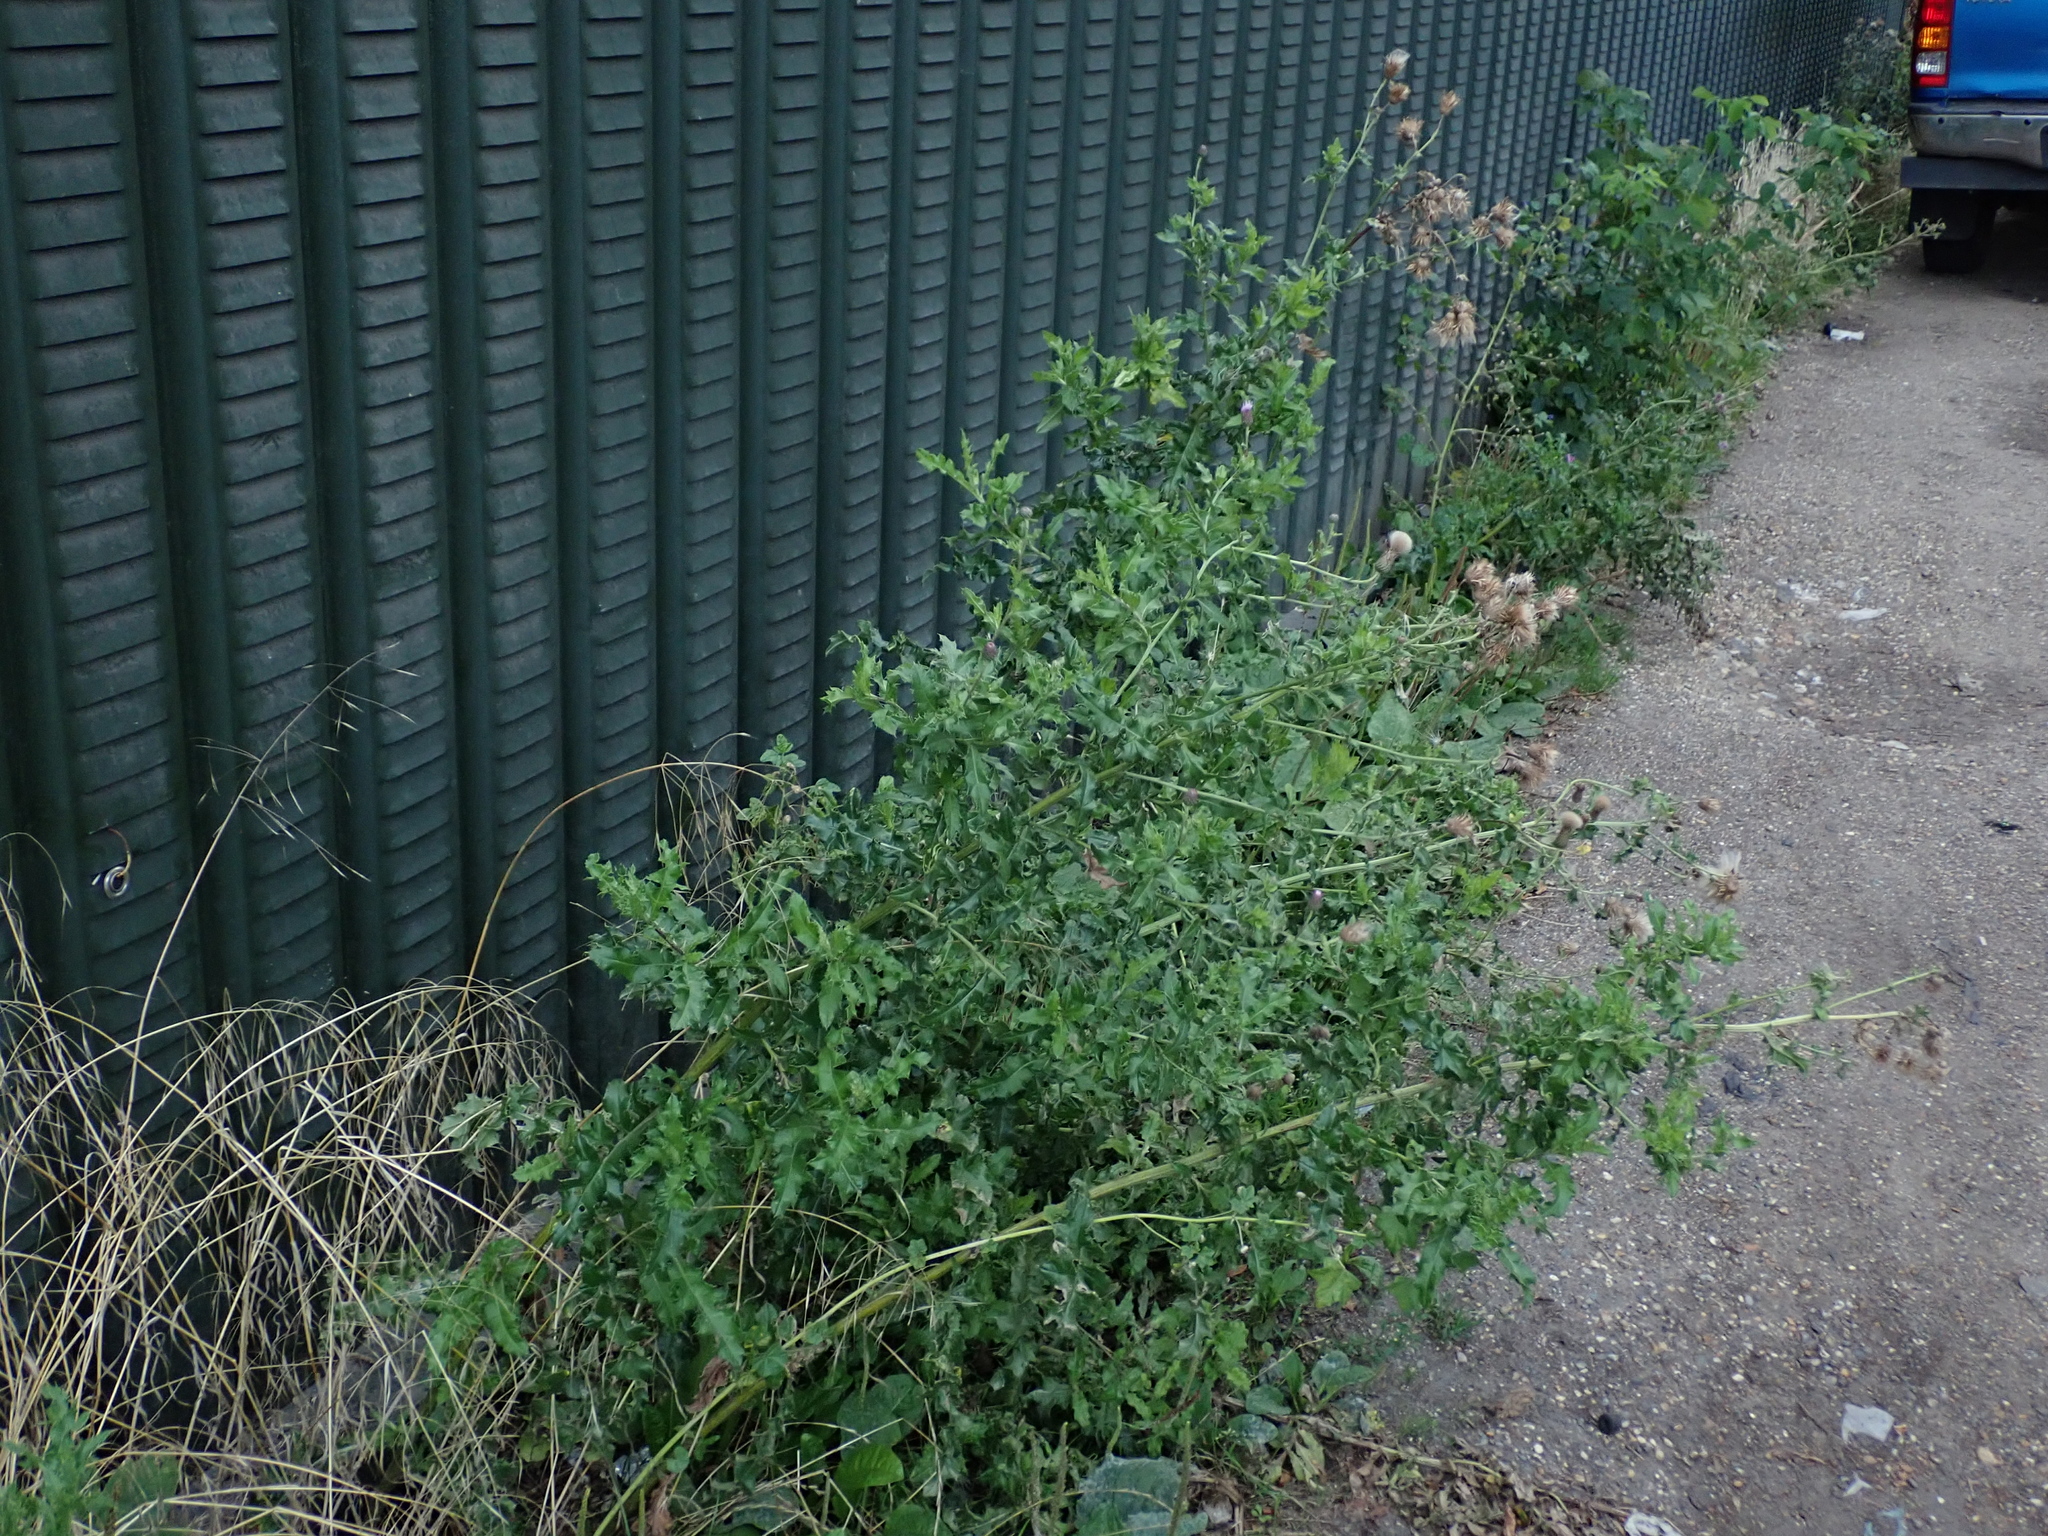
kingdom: Plantae
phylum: Tracheophyta
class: Magnoliopsida
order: Asterales
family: Asteraceae
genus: Cirsium
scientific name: Cirsium arvense
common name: Creeping thistle
